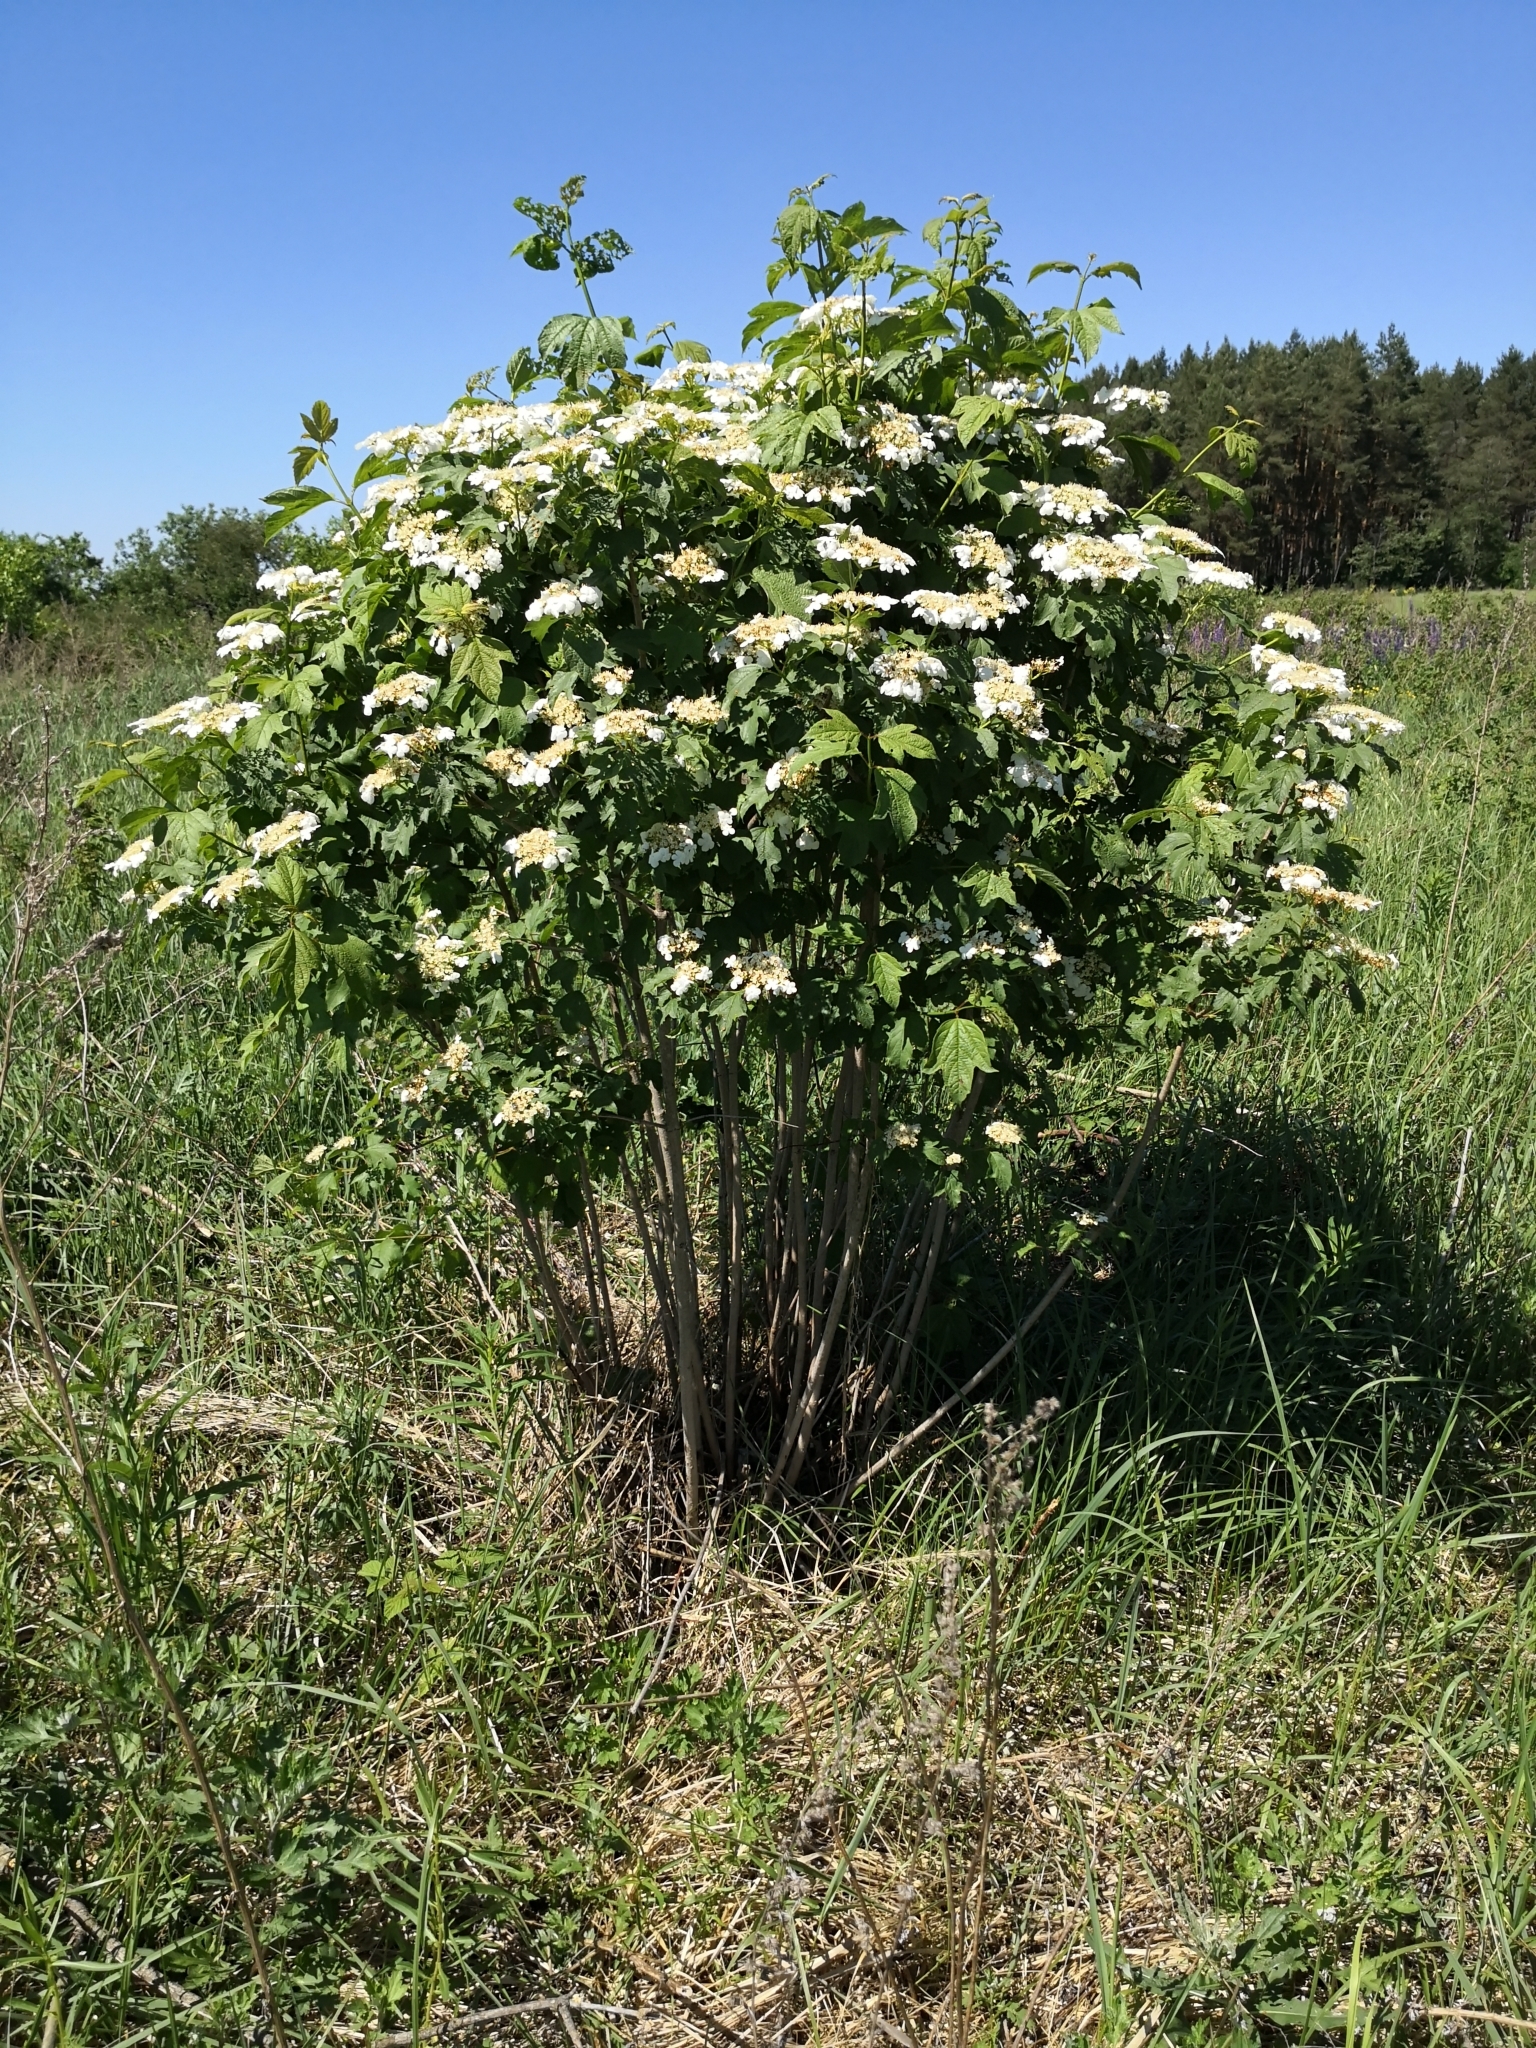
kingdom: Plantae
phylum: Tracheophyta
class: Magnoliopsida
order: Dipsacales
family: Viburnaceae
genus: Viburnum
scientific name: Viburnum opulus
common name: Guelder-rose
